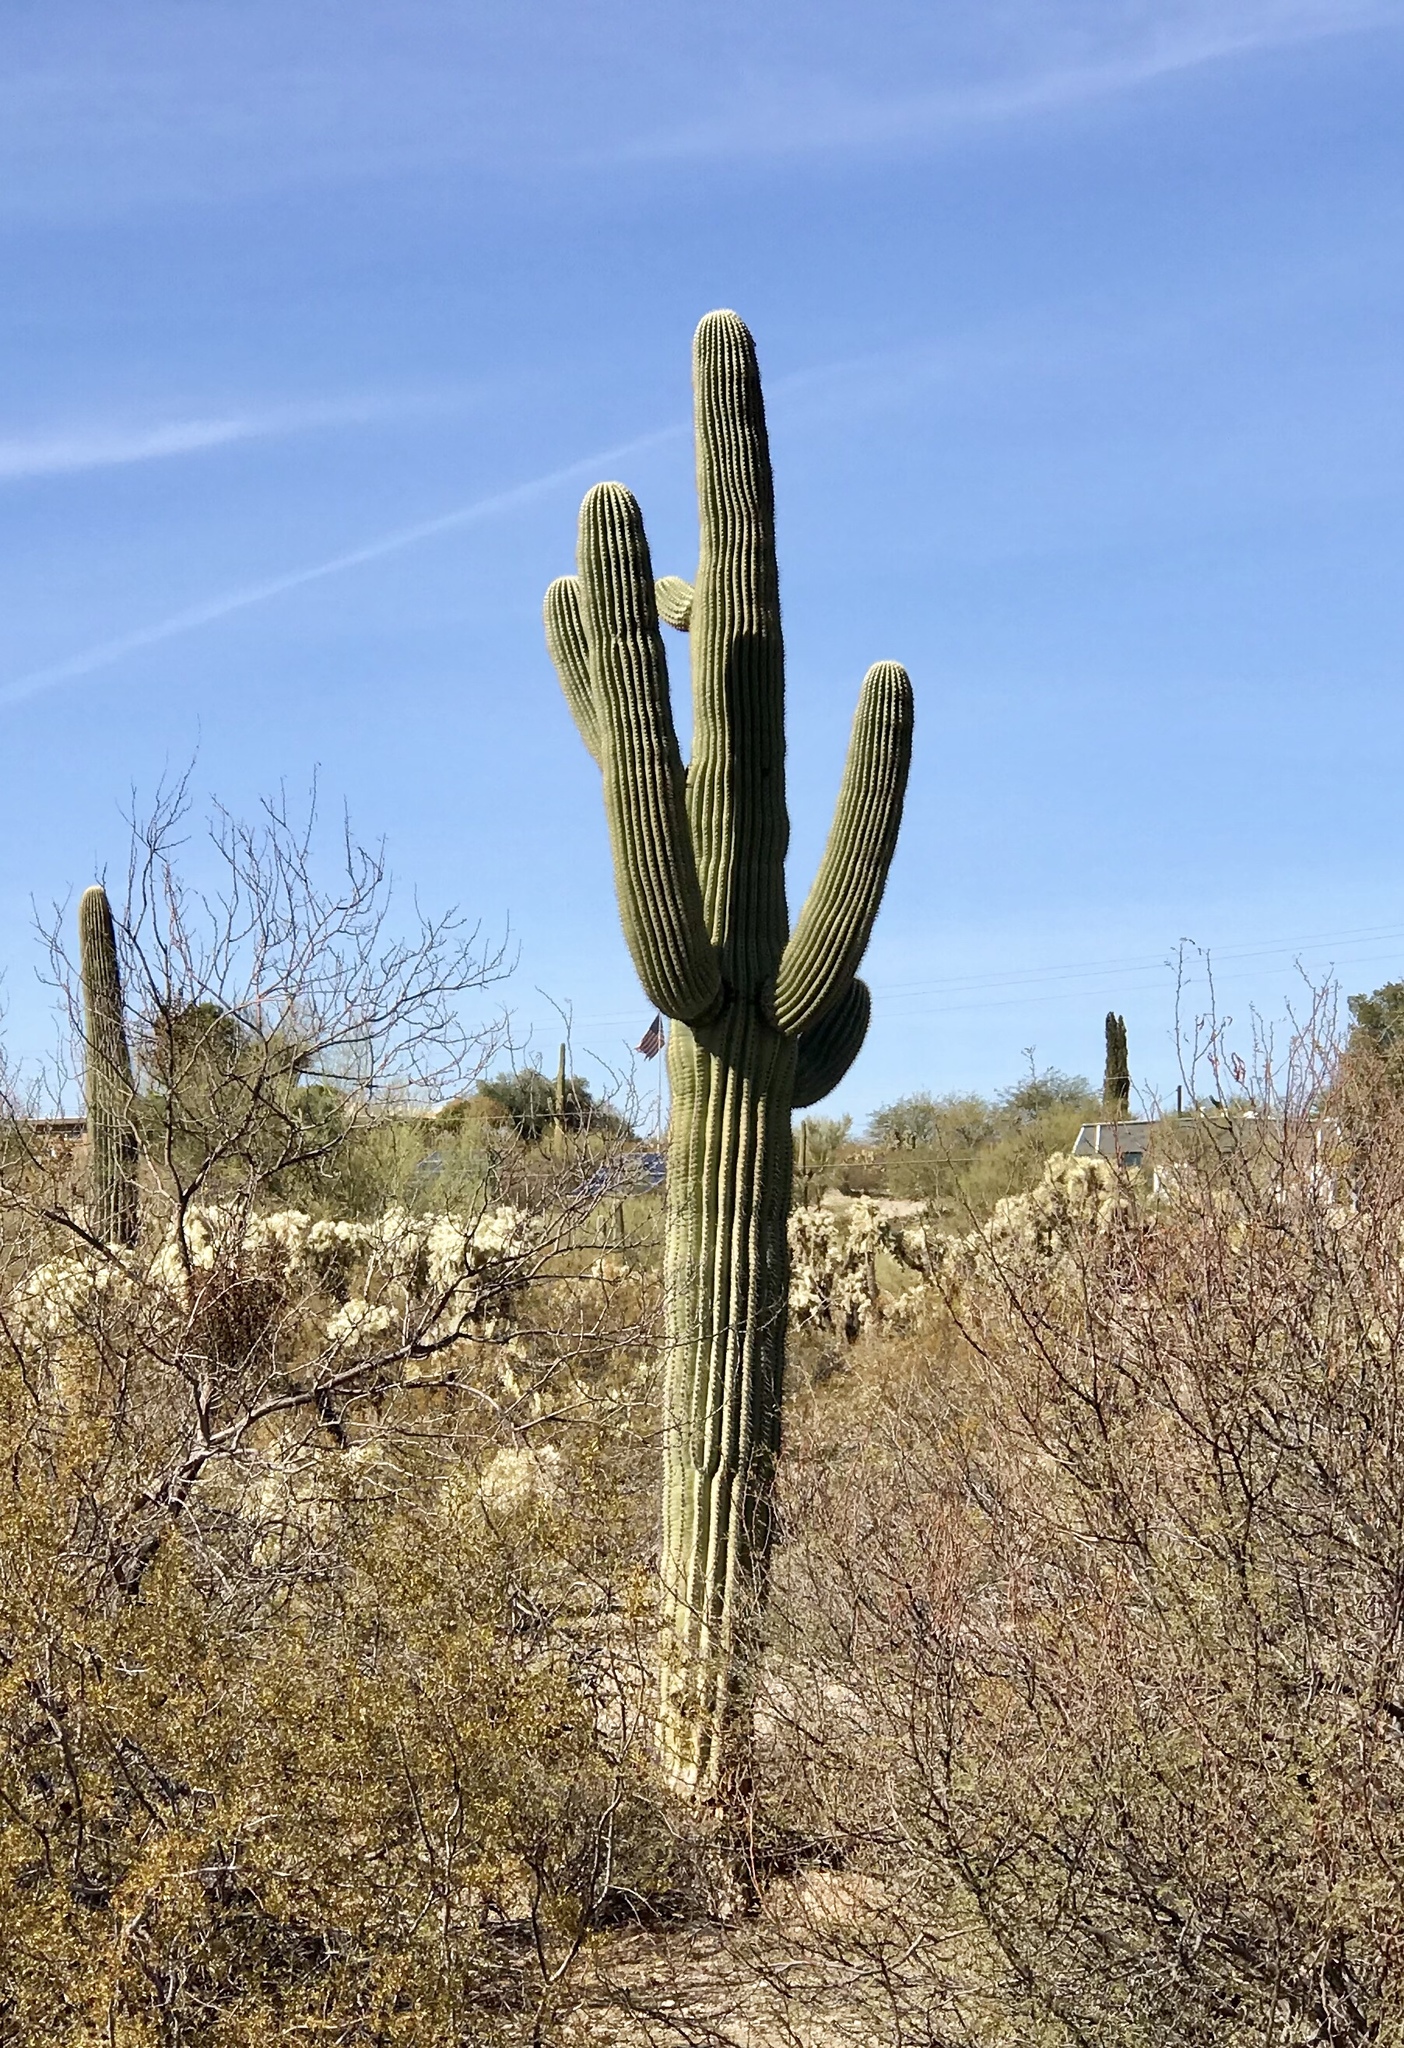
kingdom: Plantae
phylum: Tracheophyta
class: Magnoliopsida
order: Caryophyllales
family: Cactaceae
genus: Carnegiea
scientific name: Carnegiea gigantea
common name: Saguaro
